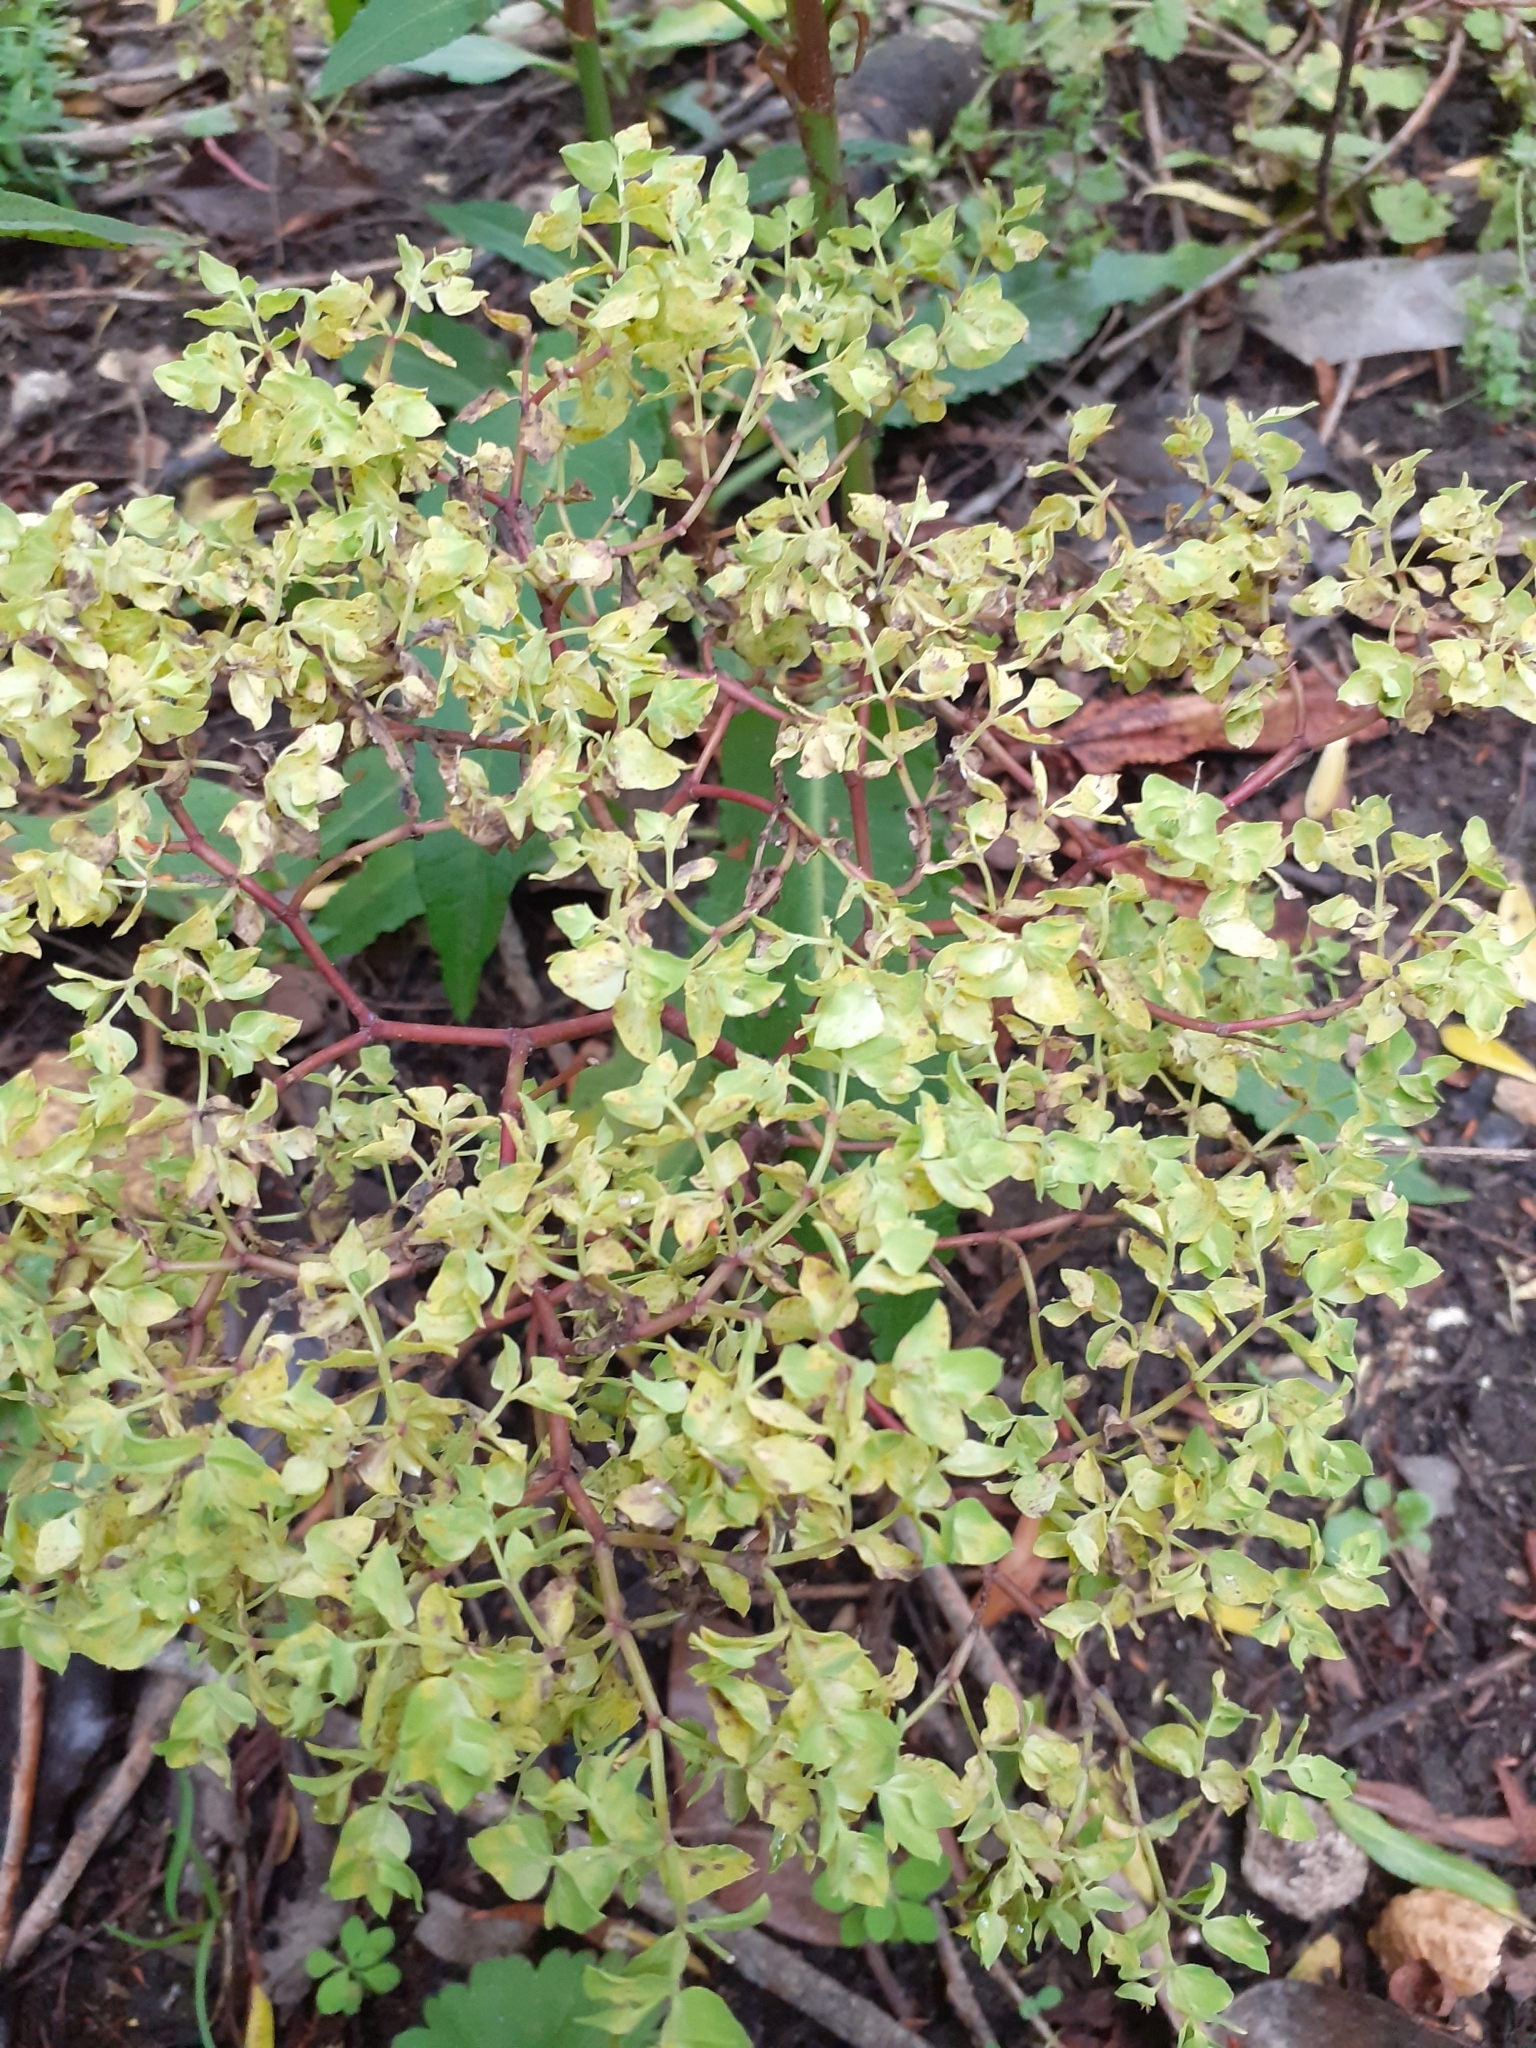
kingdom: Plantae
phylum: Tracheophyta
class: Magnoliopsida
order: Malpighiales
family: Euphorbiaceae
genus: Euphorbia
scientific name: Euphorbia peplus
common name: Petty spurge
